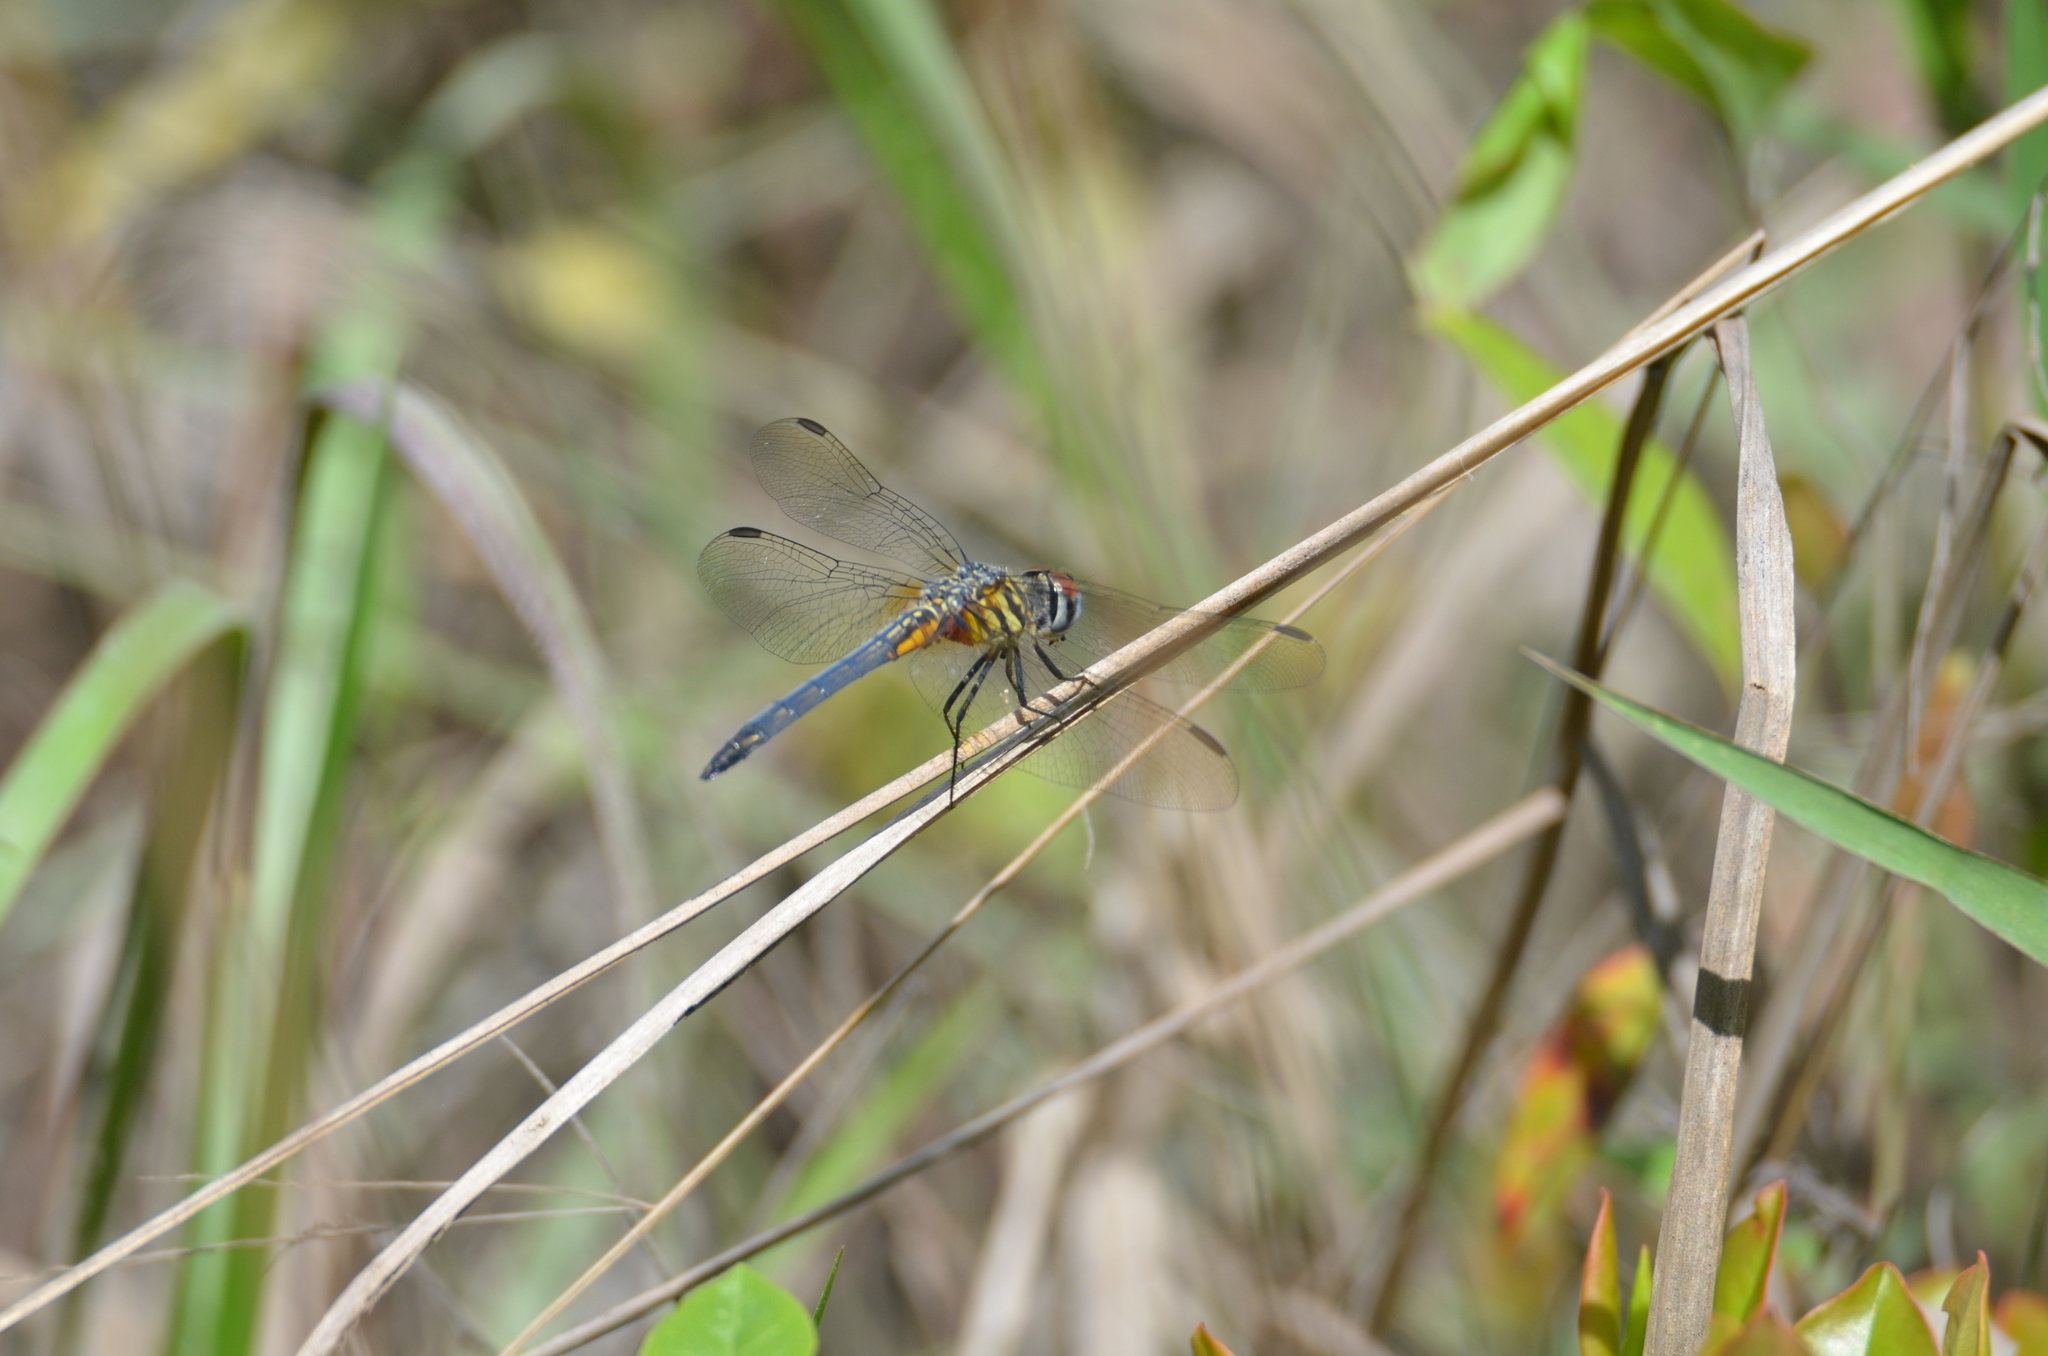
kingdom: Animalia
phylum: Arthropoda
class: Insecta
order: Odonata
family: Libellulidae
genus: Pachydiplax
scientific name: Pachydiplax longipennis
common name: Blue dasher
